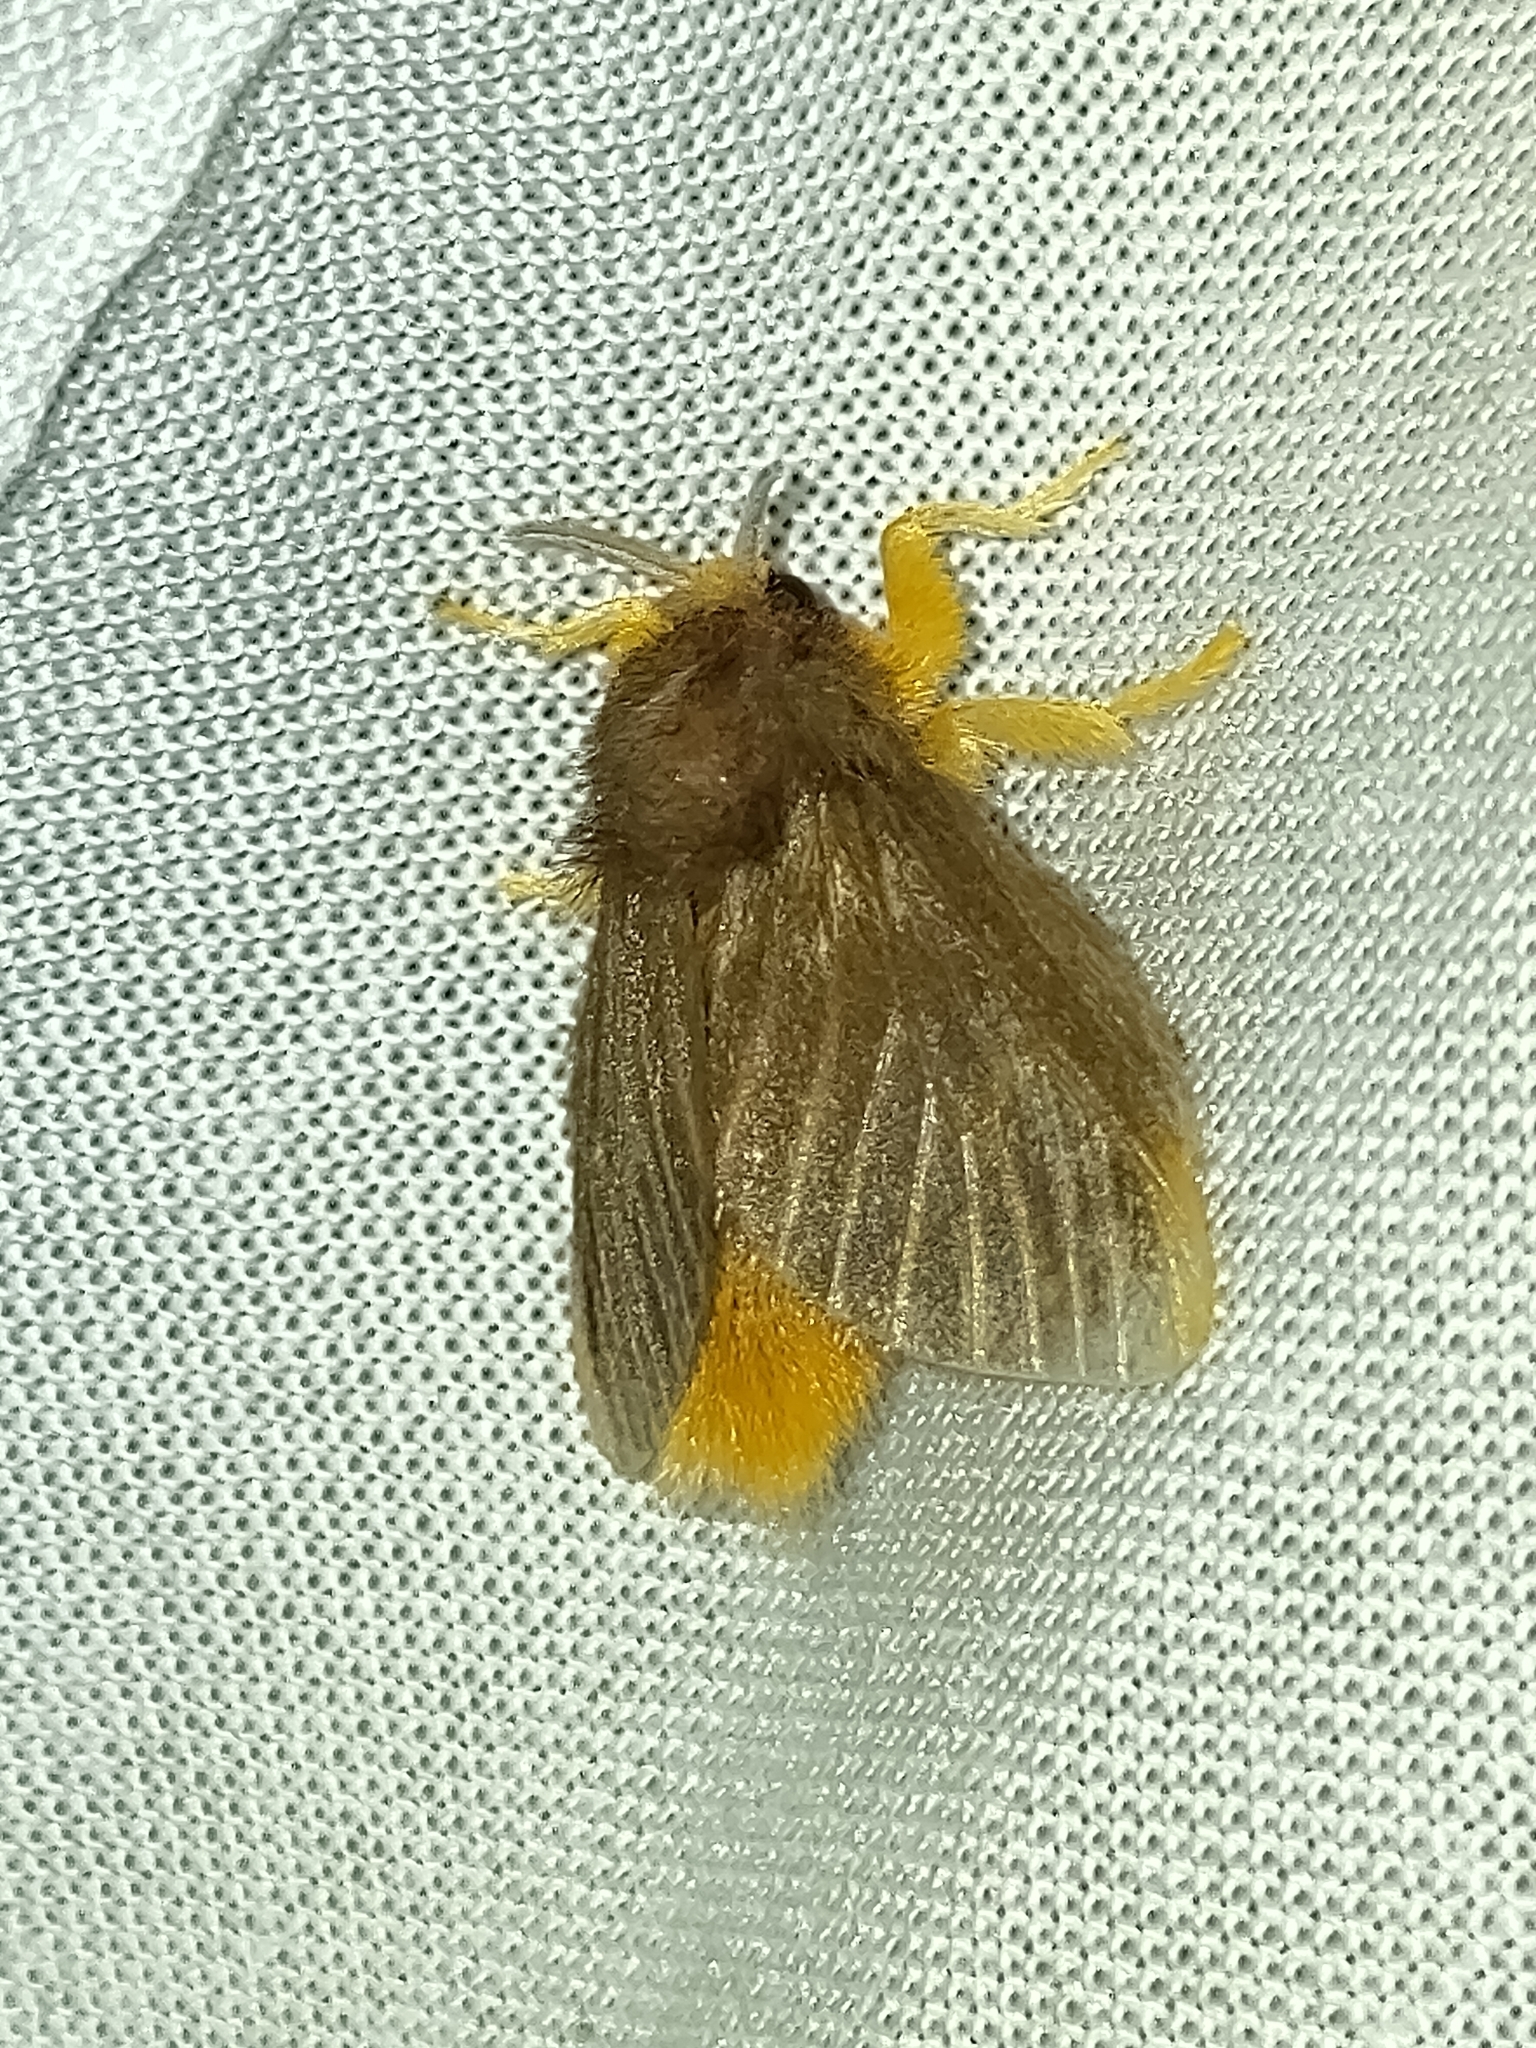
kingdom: Animalia
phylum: Arthropoda
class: Insecta
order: Lepidoptera
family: Megalopygidae
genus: Megalopyge
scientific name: Megalopyge hina
